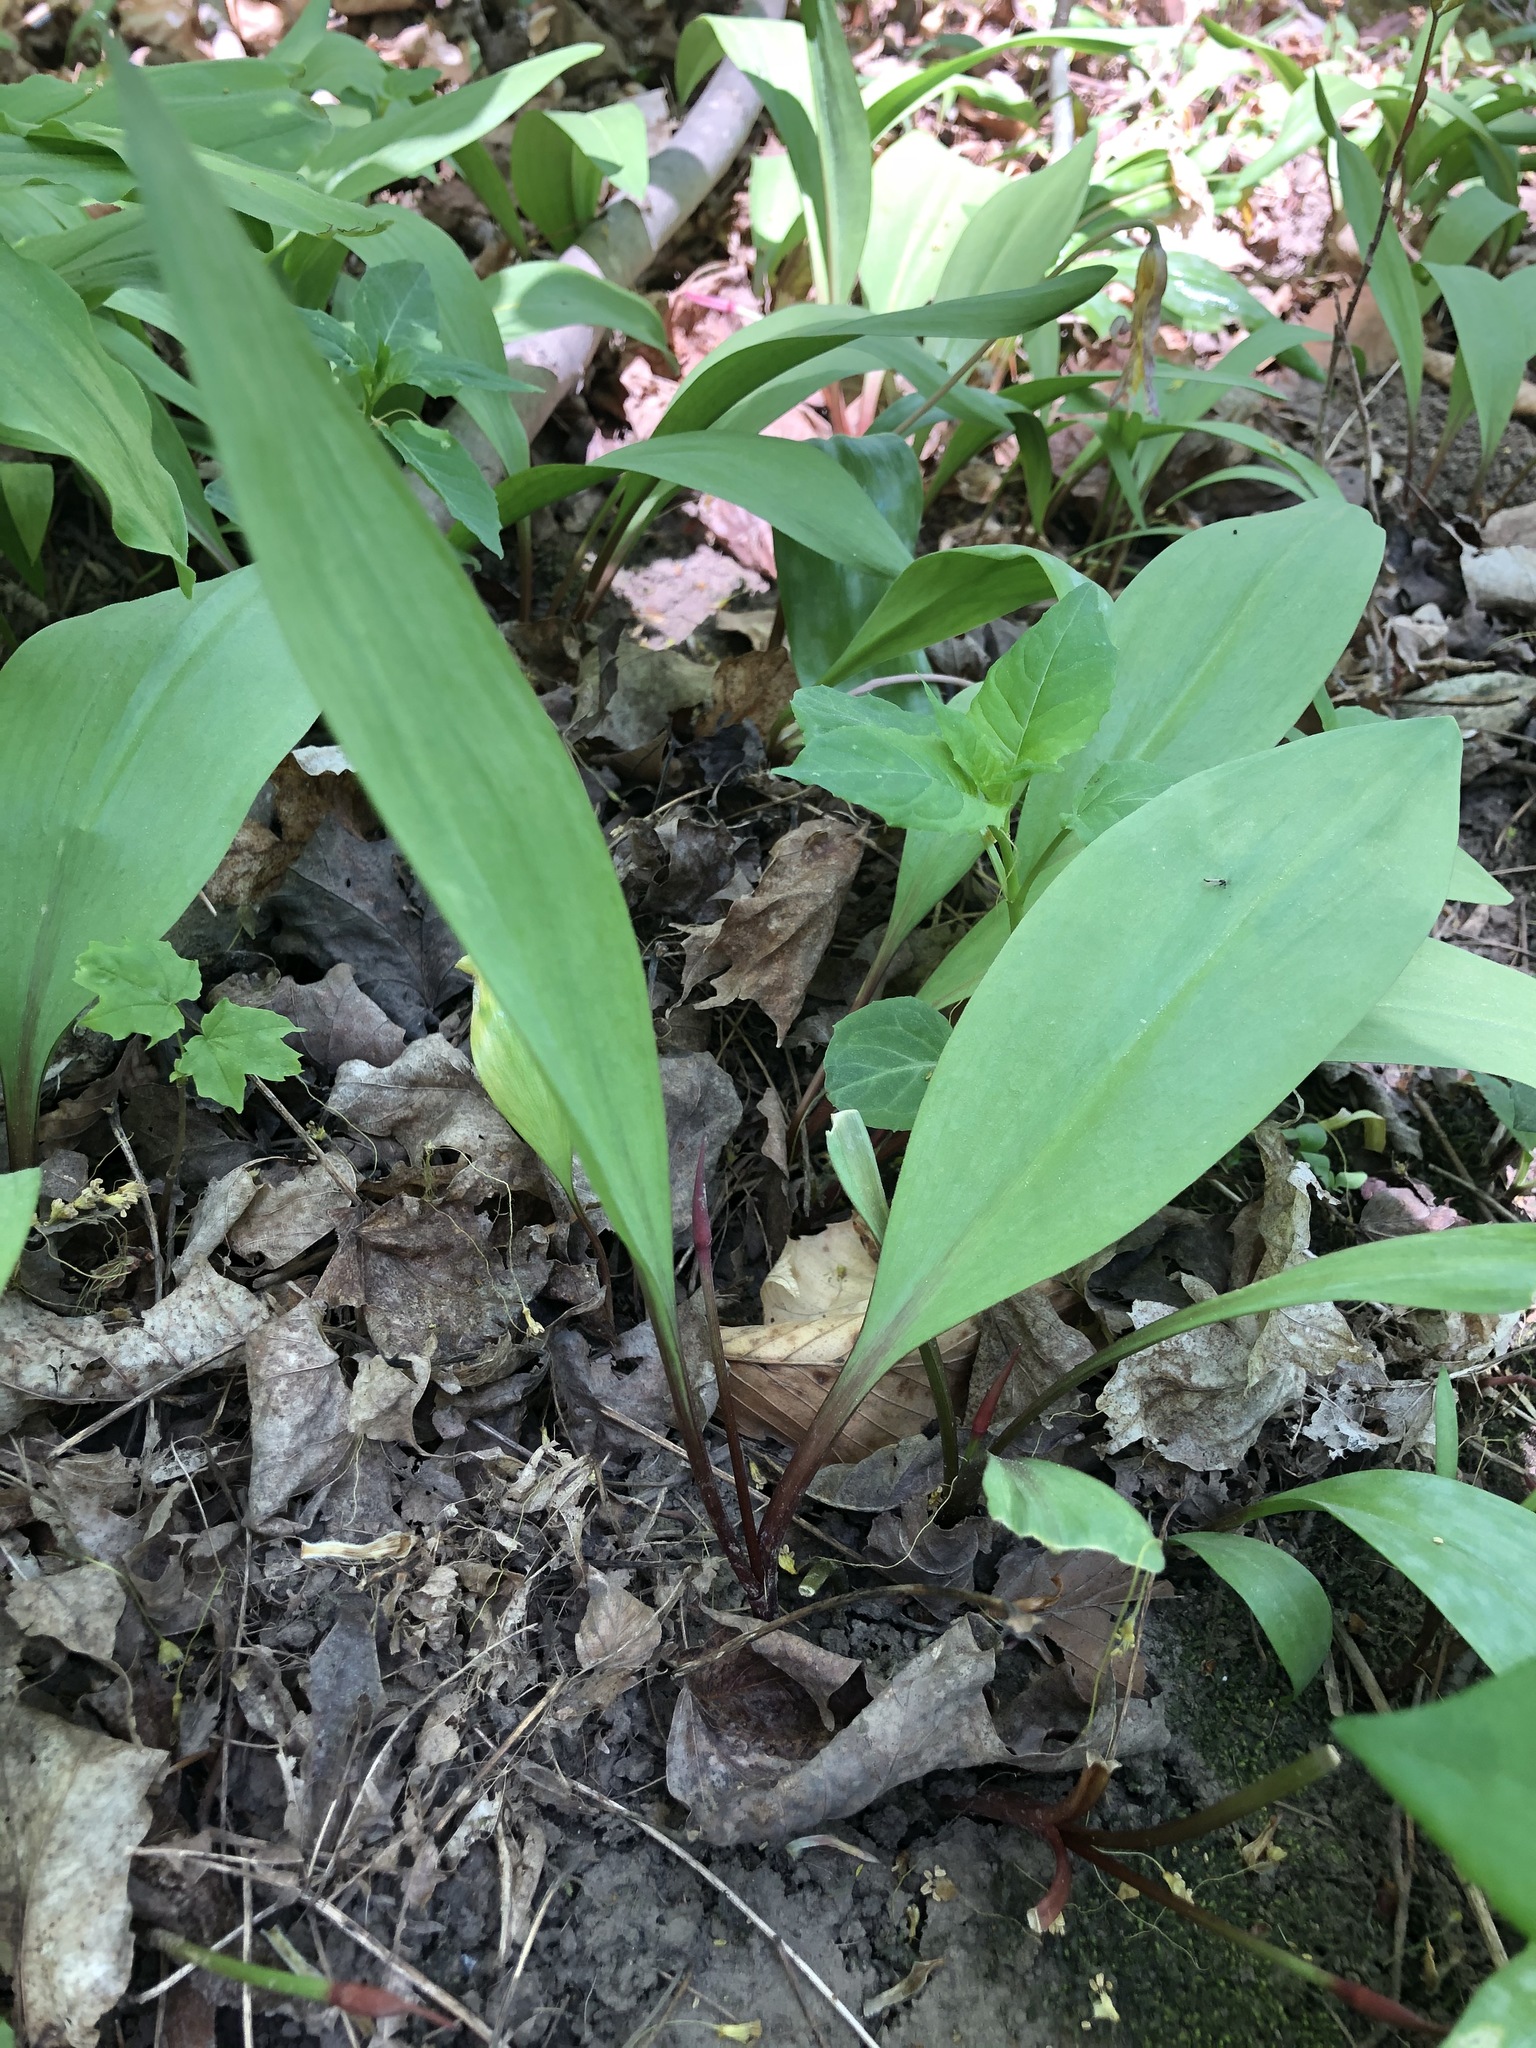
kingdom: Plantae
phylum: Tracheophyta
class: Liliopsida
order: Asparagales
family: Amaryllidaceae
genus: Allium
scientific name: Allium tricoccum
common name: Ramp
